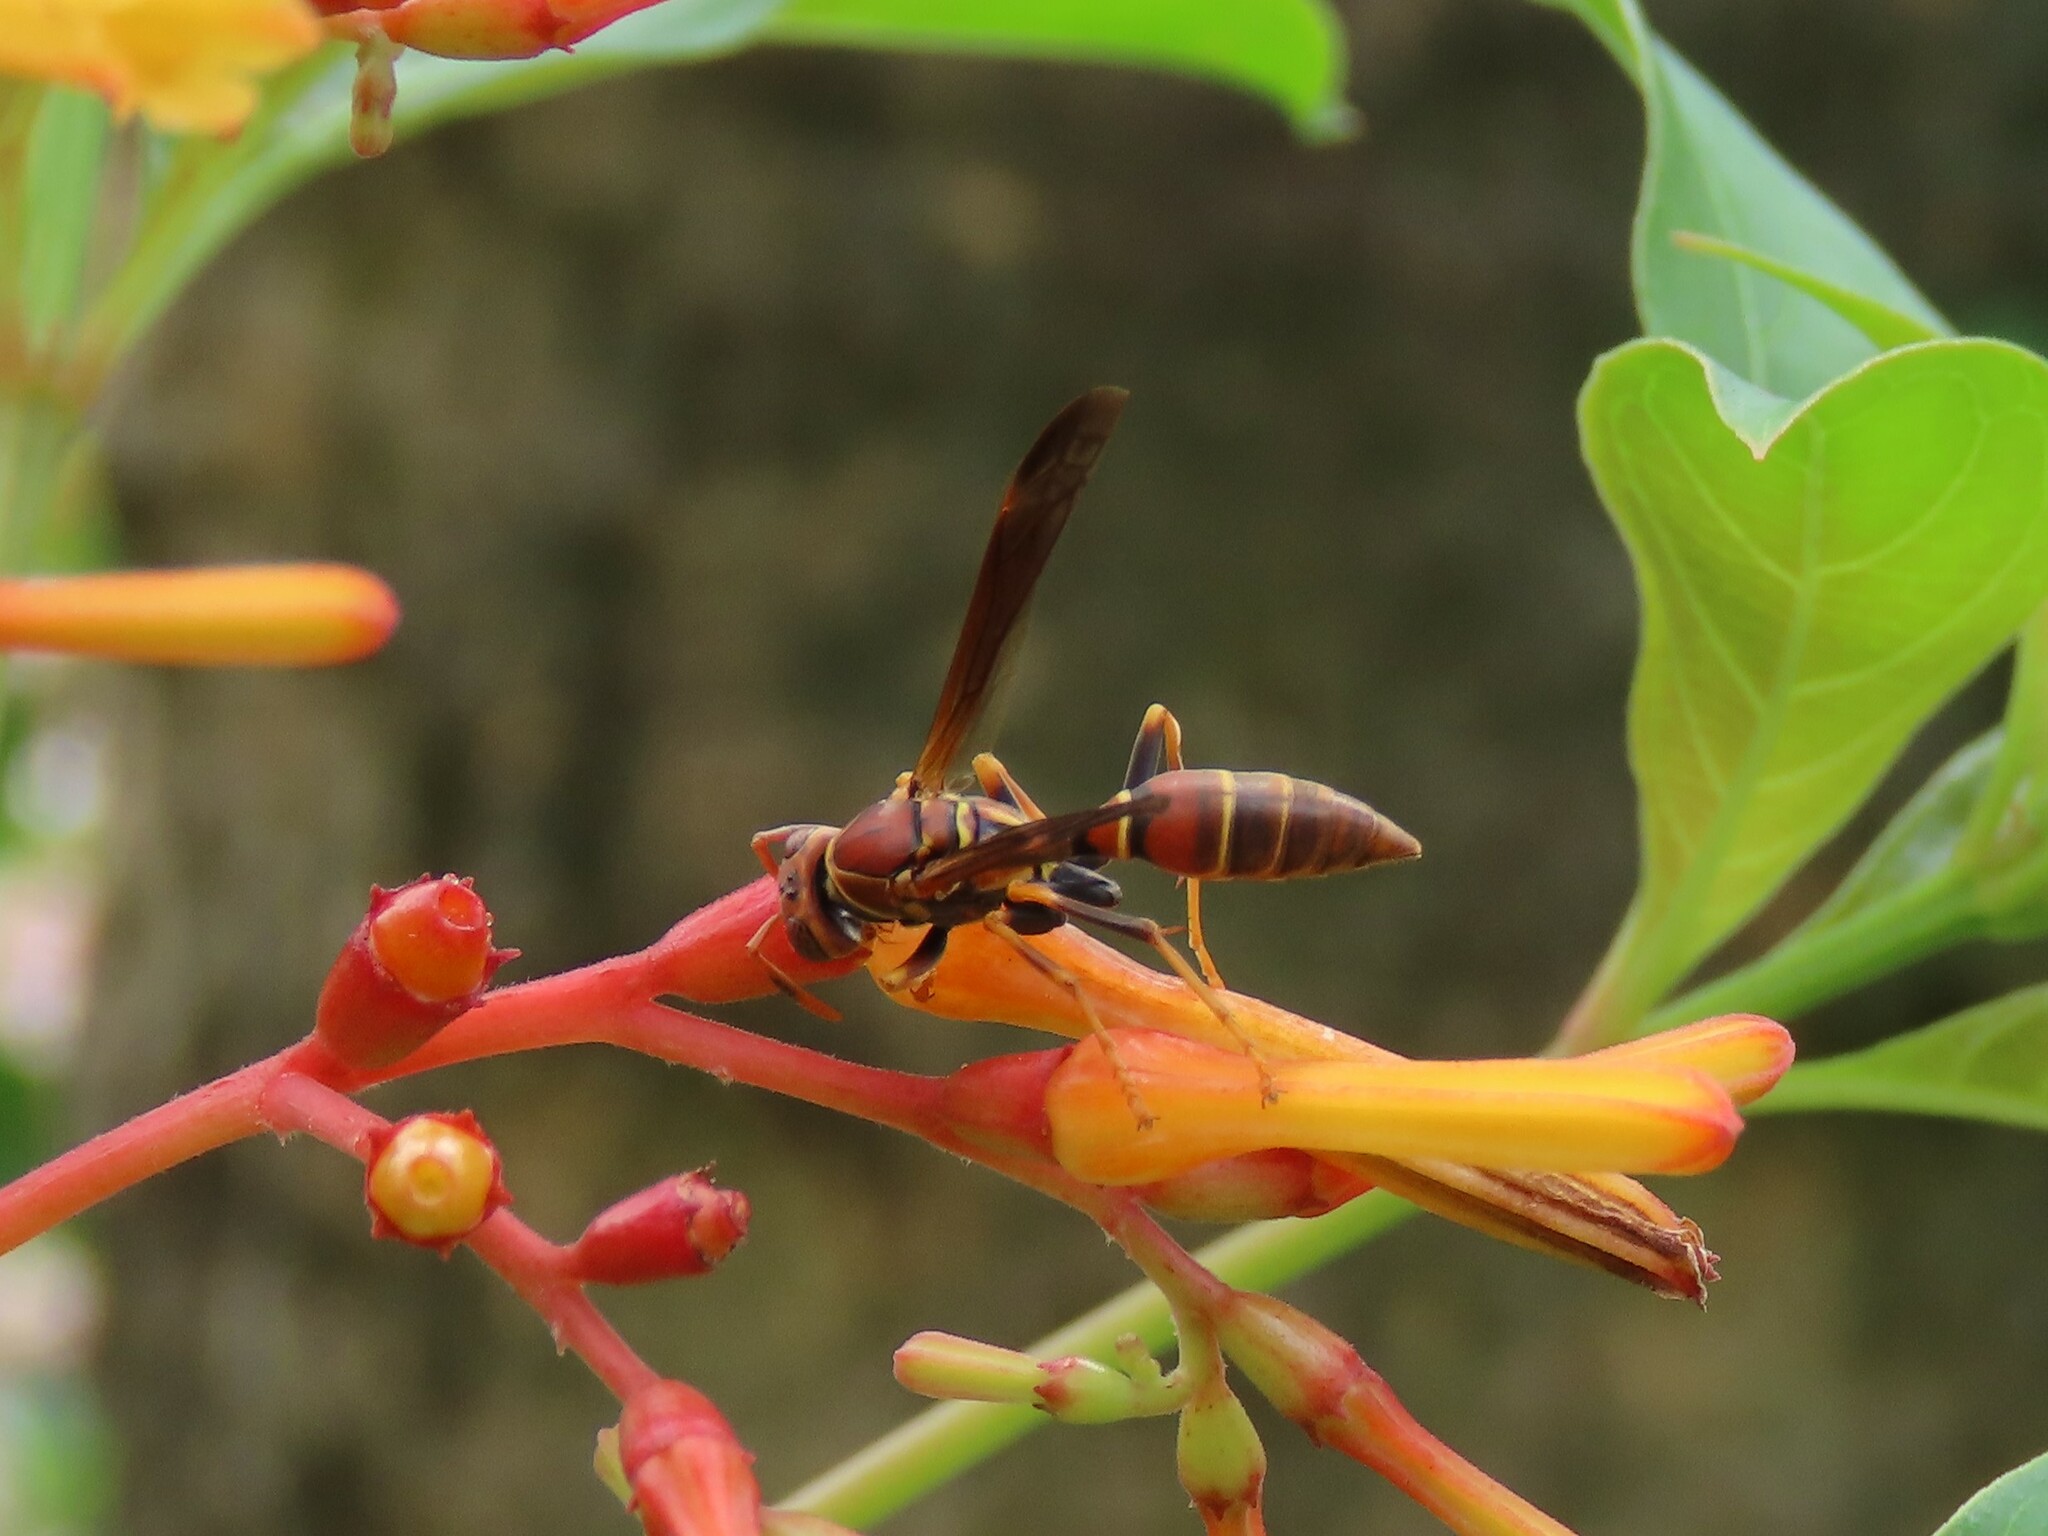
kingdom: Animalia
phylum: Arthropoda
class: Insecta
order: Hymenoptera
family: Eumenidae
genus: Polistes
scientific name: Polistes bahamensis
